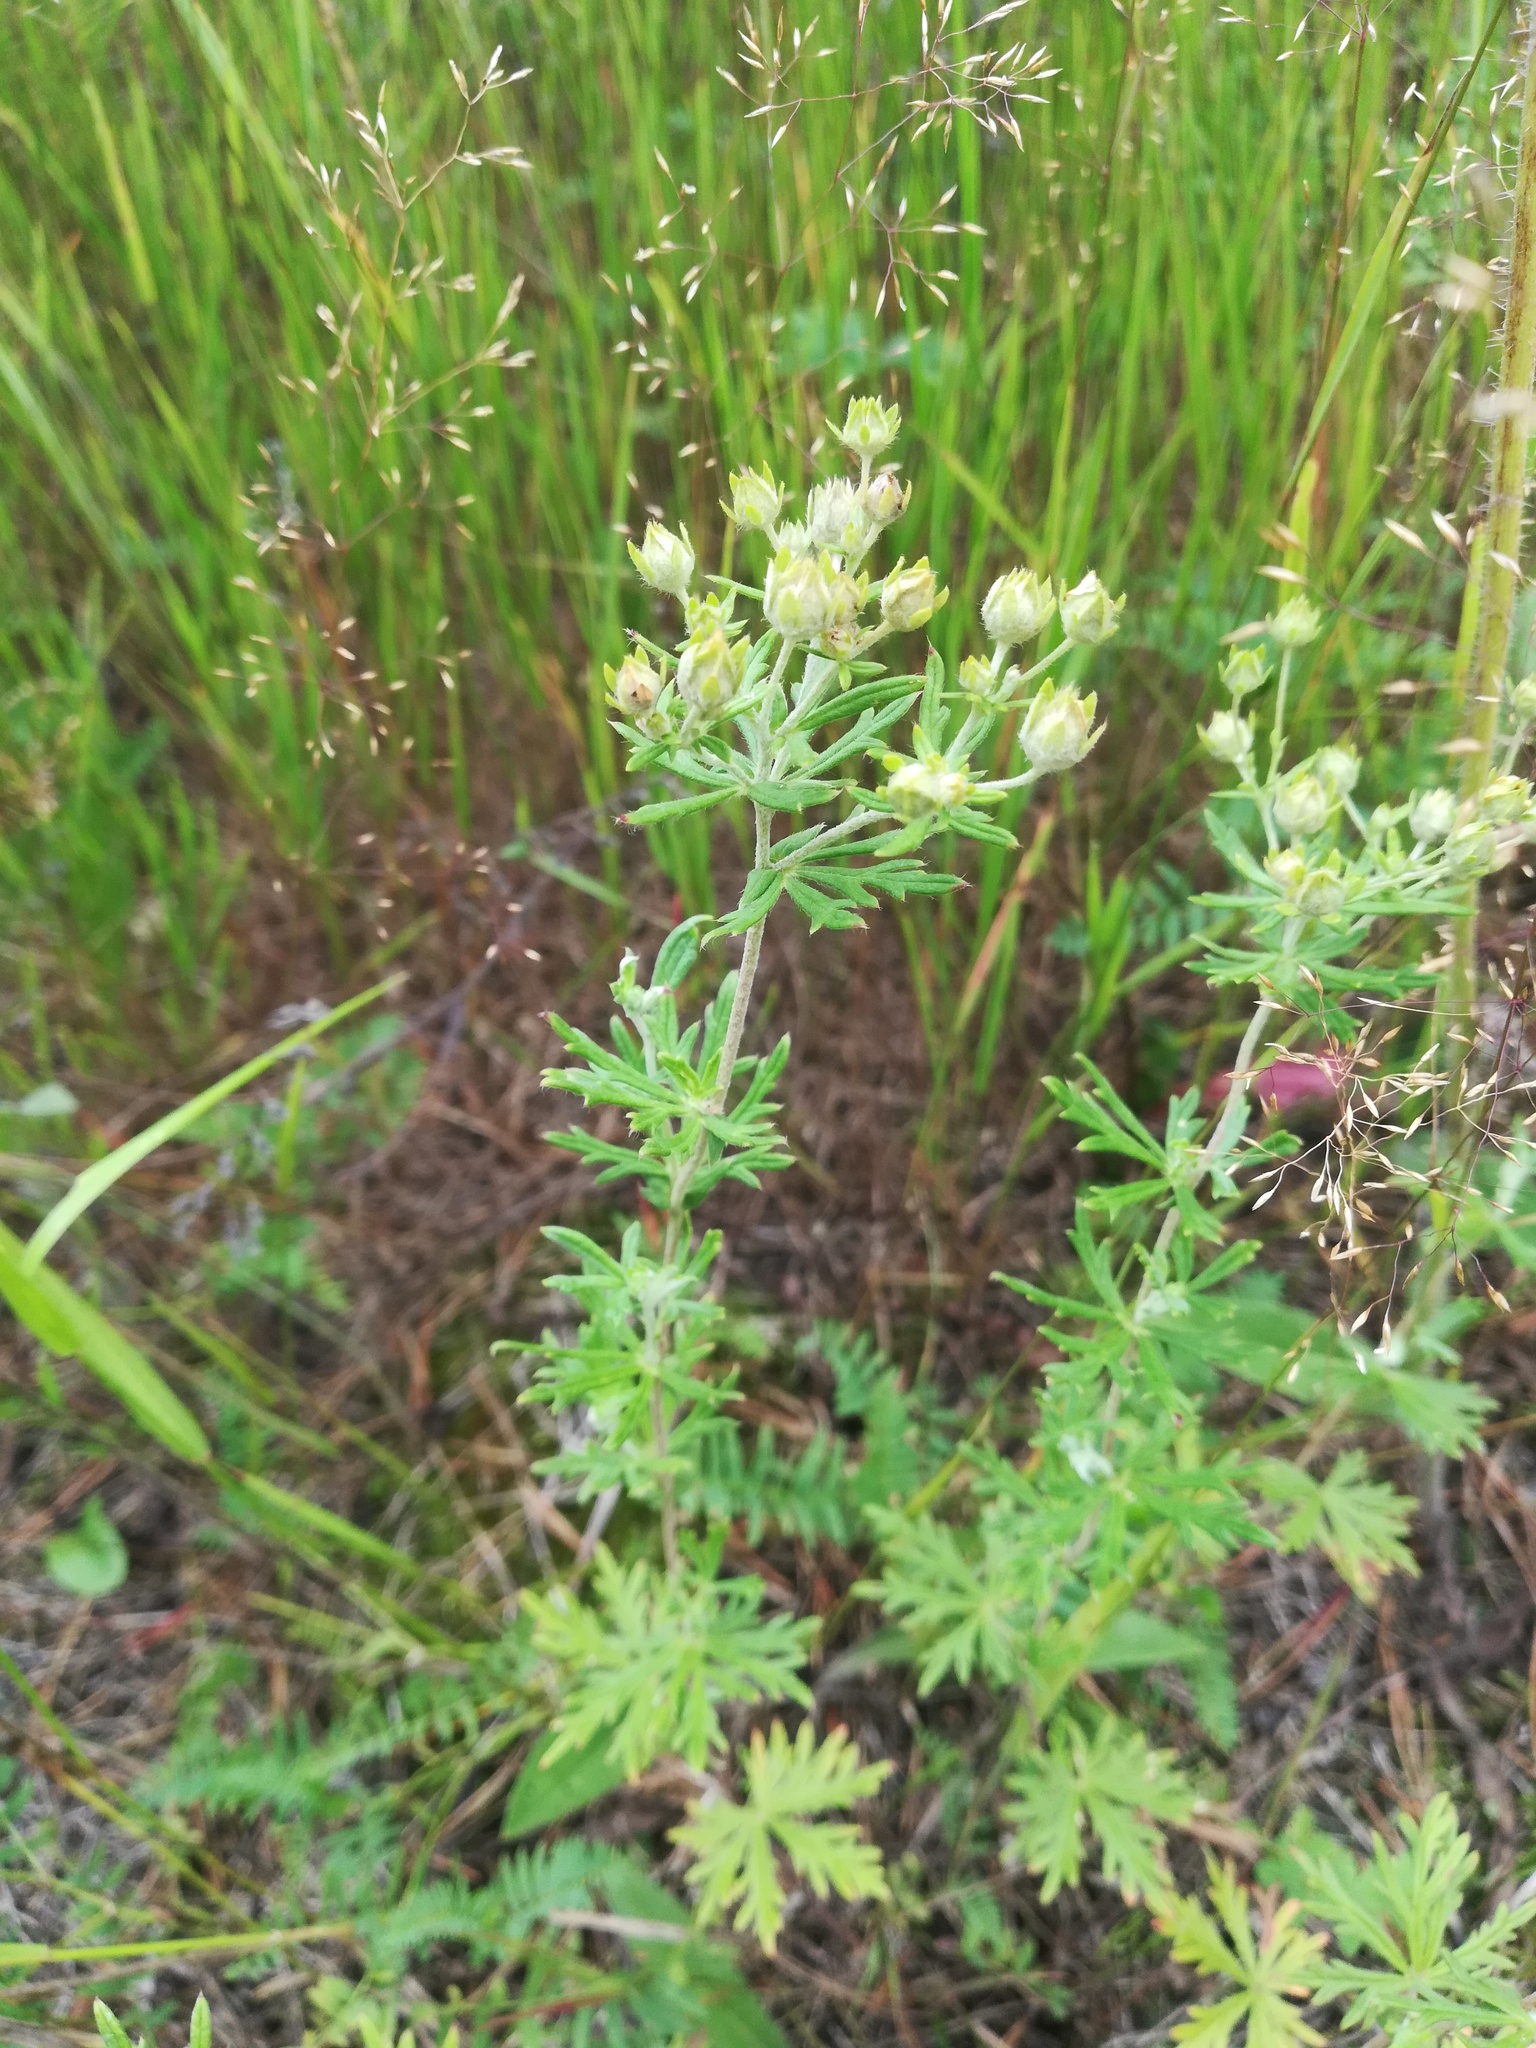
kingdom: Plantae
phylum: Tracheophyta
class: Magnoliopsida
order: Rosales
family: Rosaceae
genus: Potentilla
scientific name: Potentilla argentea
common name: Hoary cinquefoil
